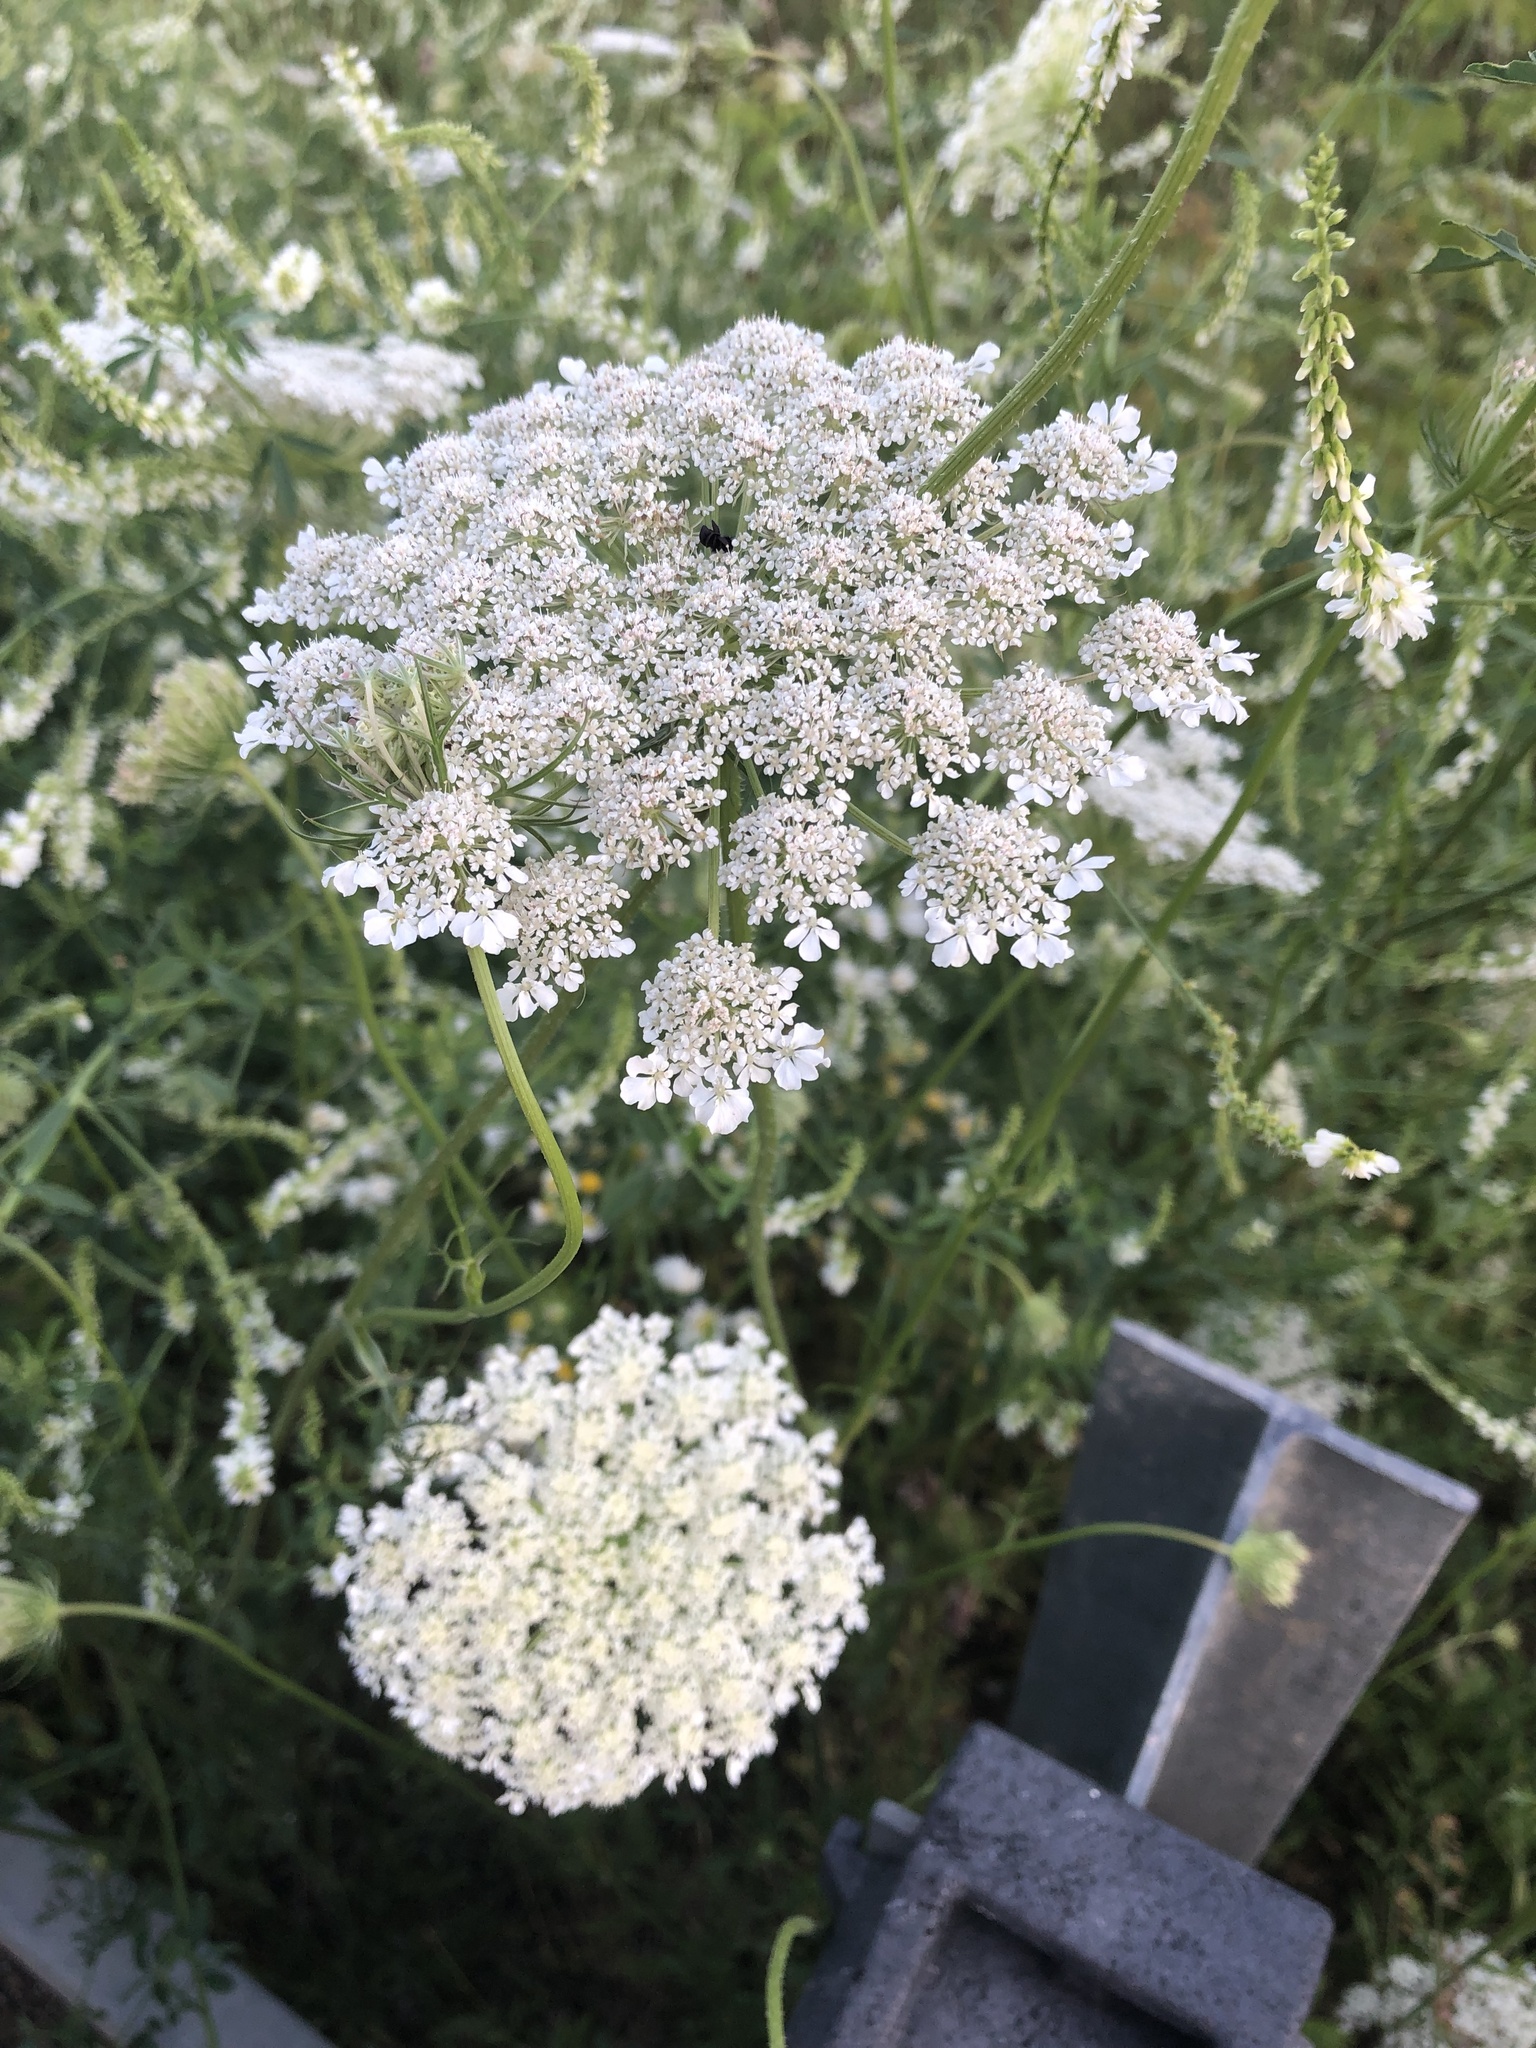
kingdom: Plantae
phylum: Tracheophyta
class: Magnoliopsida
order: Apiales
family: Apiaceae
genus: Daucus
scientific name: Daucus carota
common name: Wild carrot
